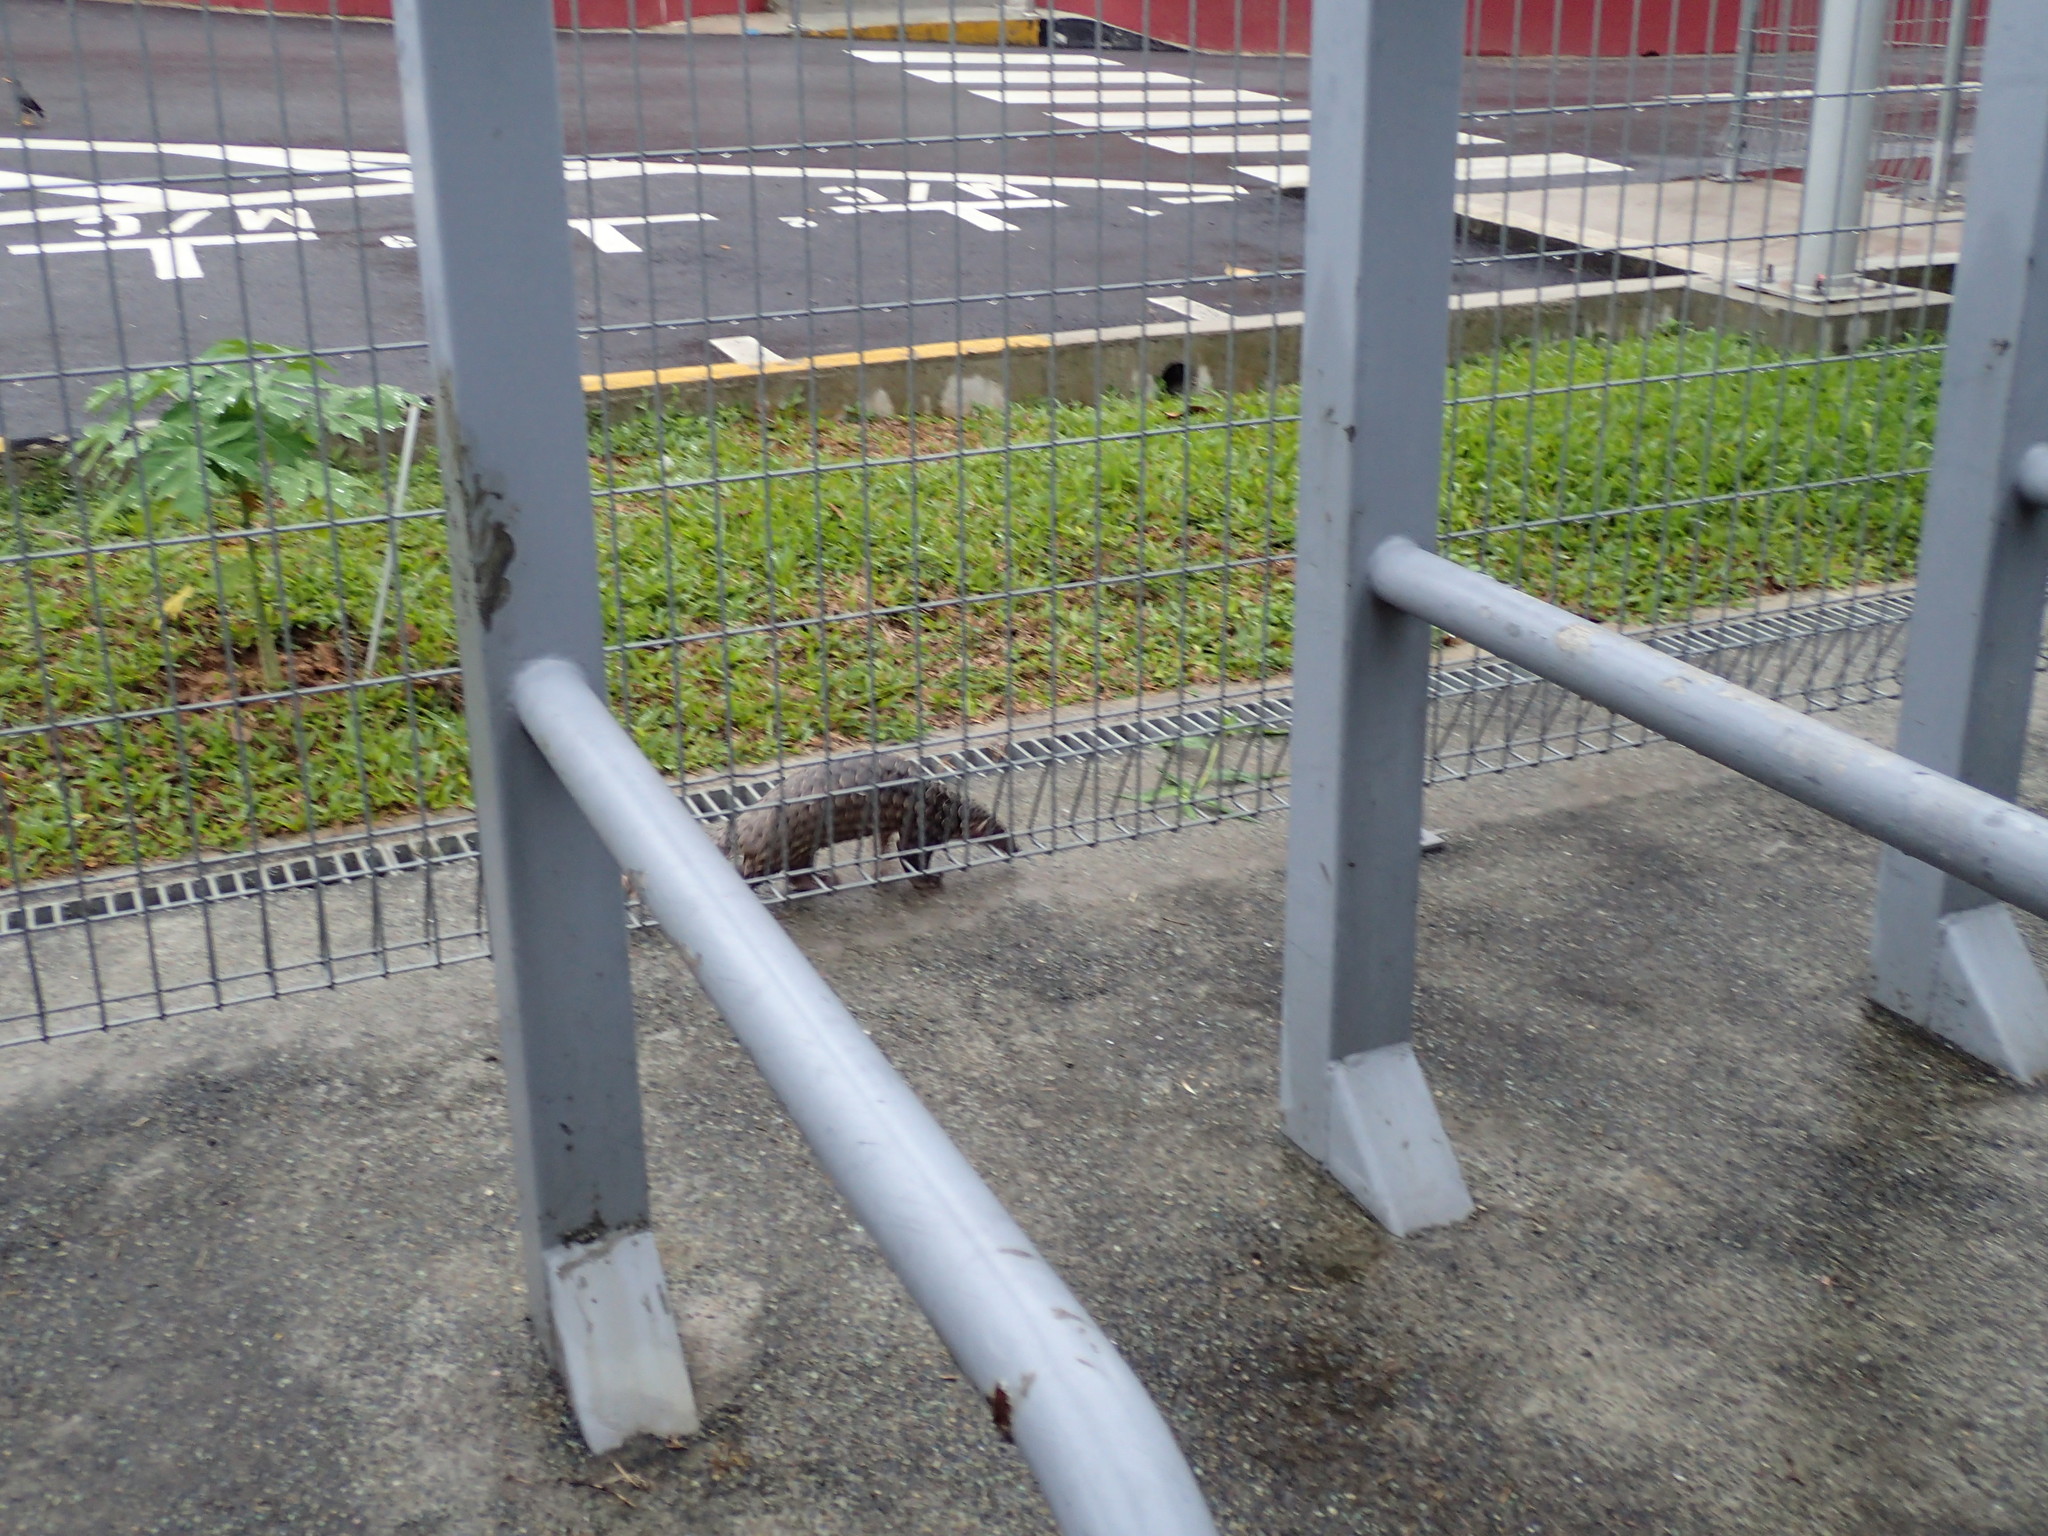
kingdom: Animalia
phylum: Chordata
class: Mammalia
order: Pholidota
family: Manidae
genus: Manis
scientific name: Manis javanica
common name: Sunda pangolin
